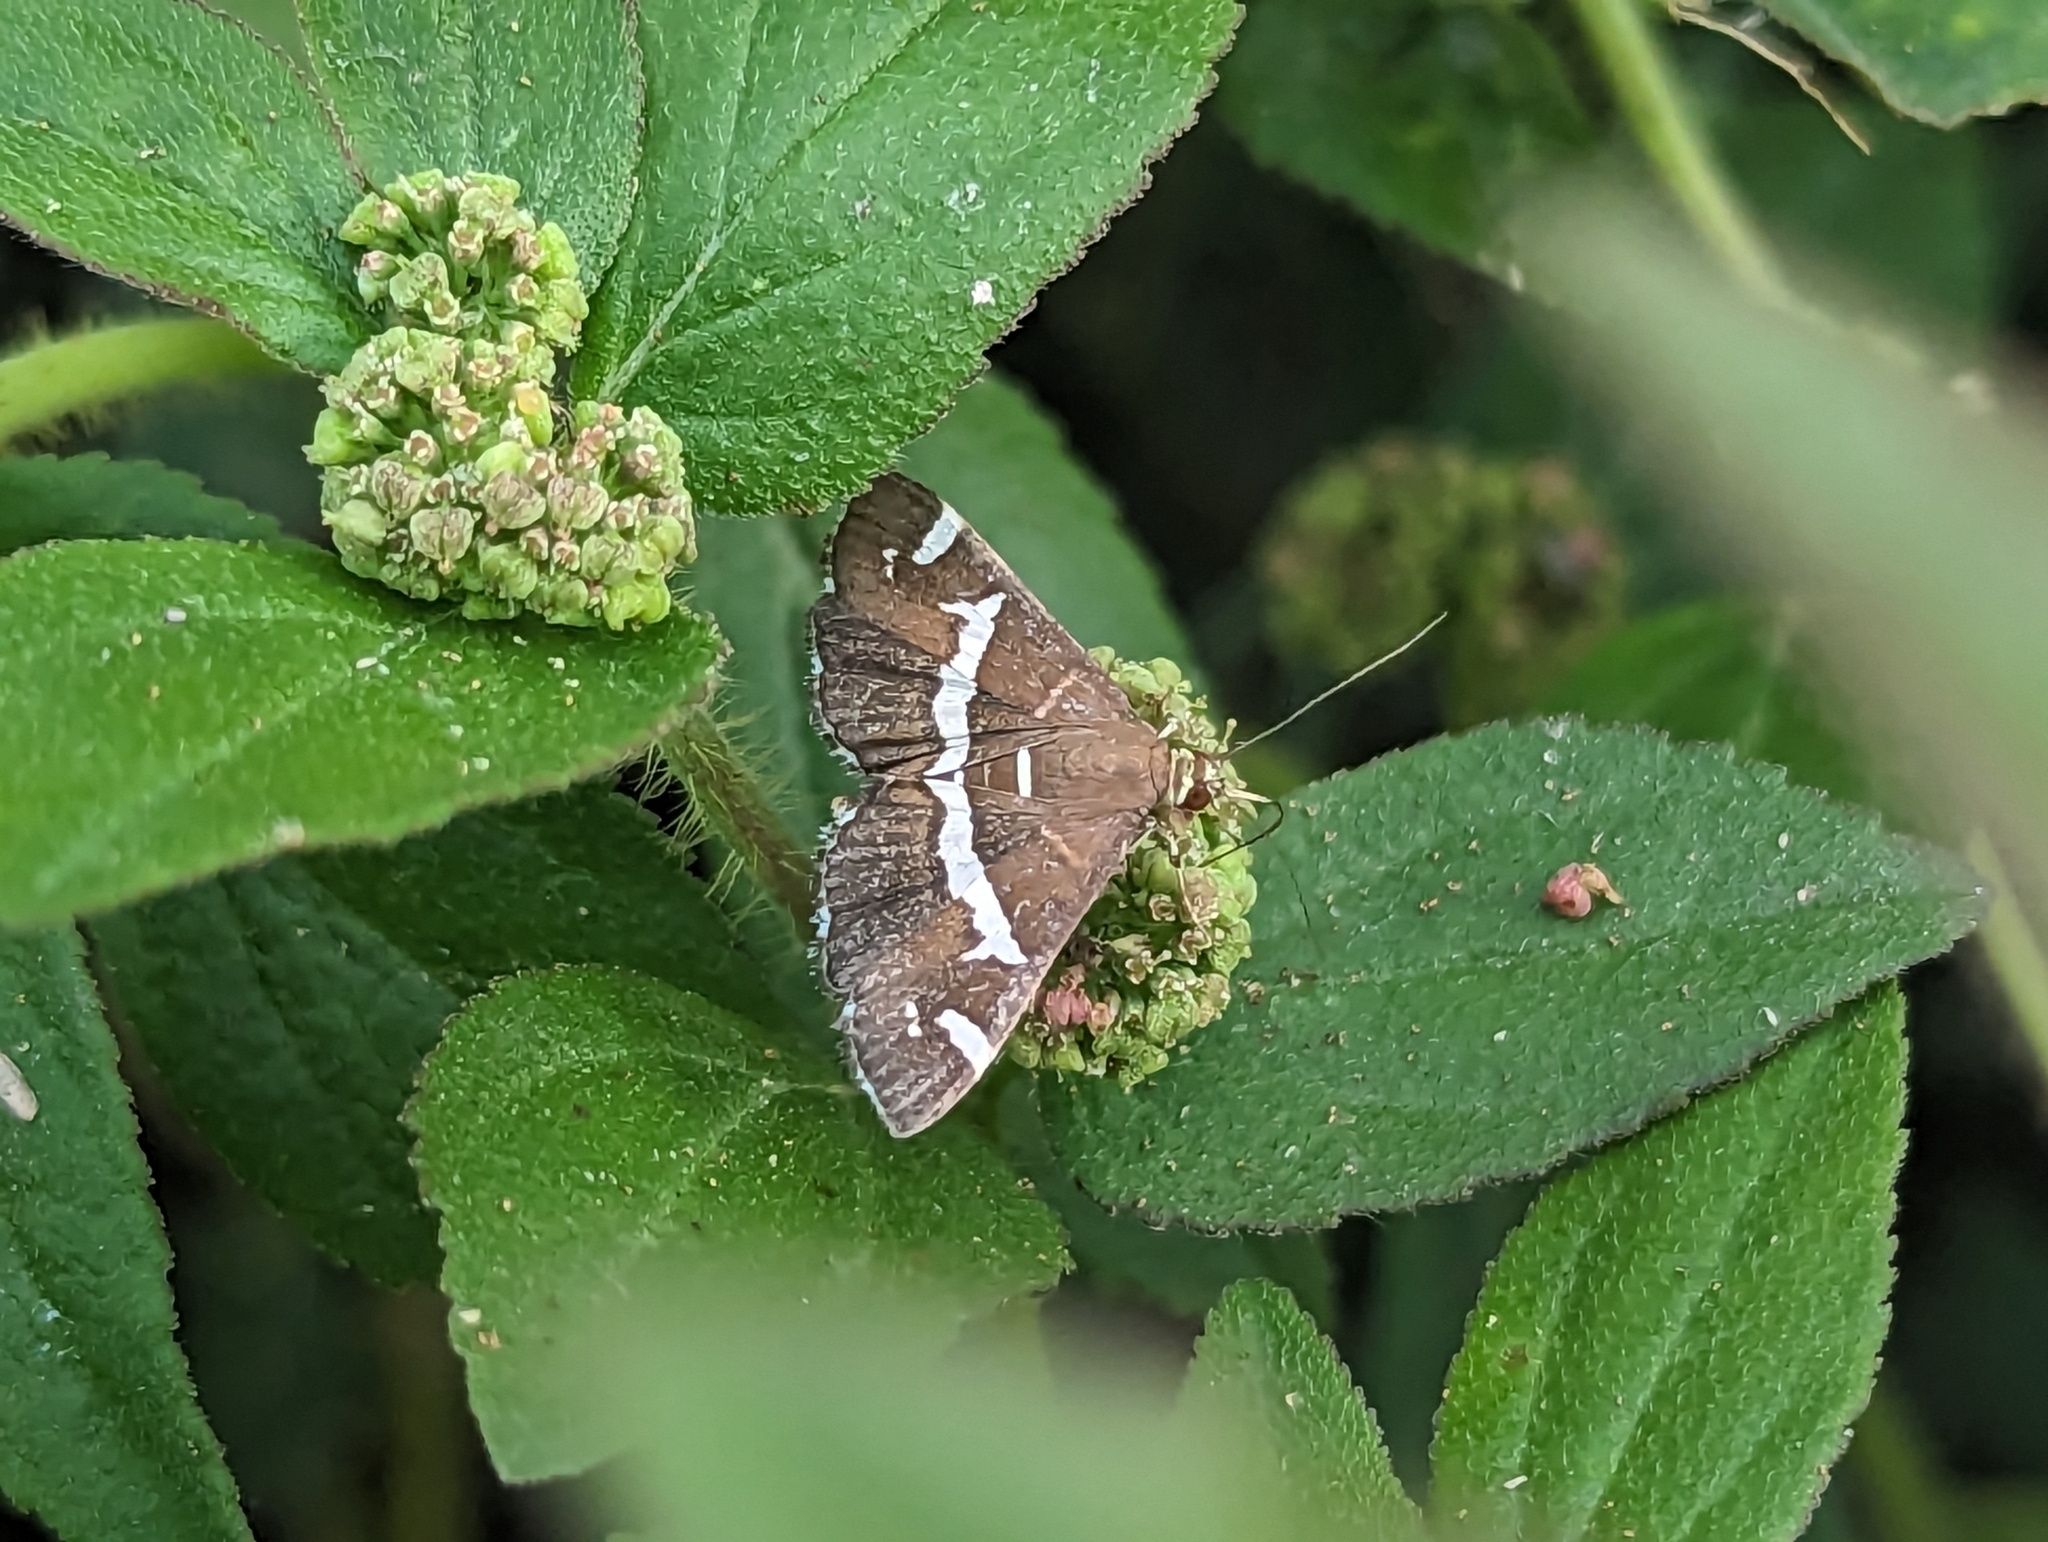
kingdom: Animalia
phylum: Arthropoda
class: Insecta
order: Lepidoptera
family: Crambidae
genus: Spoladea
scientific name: Spoladea recurvalis
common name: Beet webworm moth
